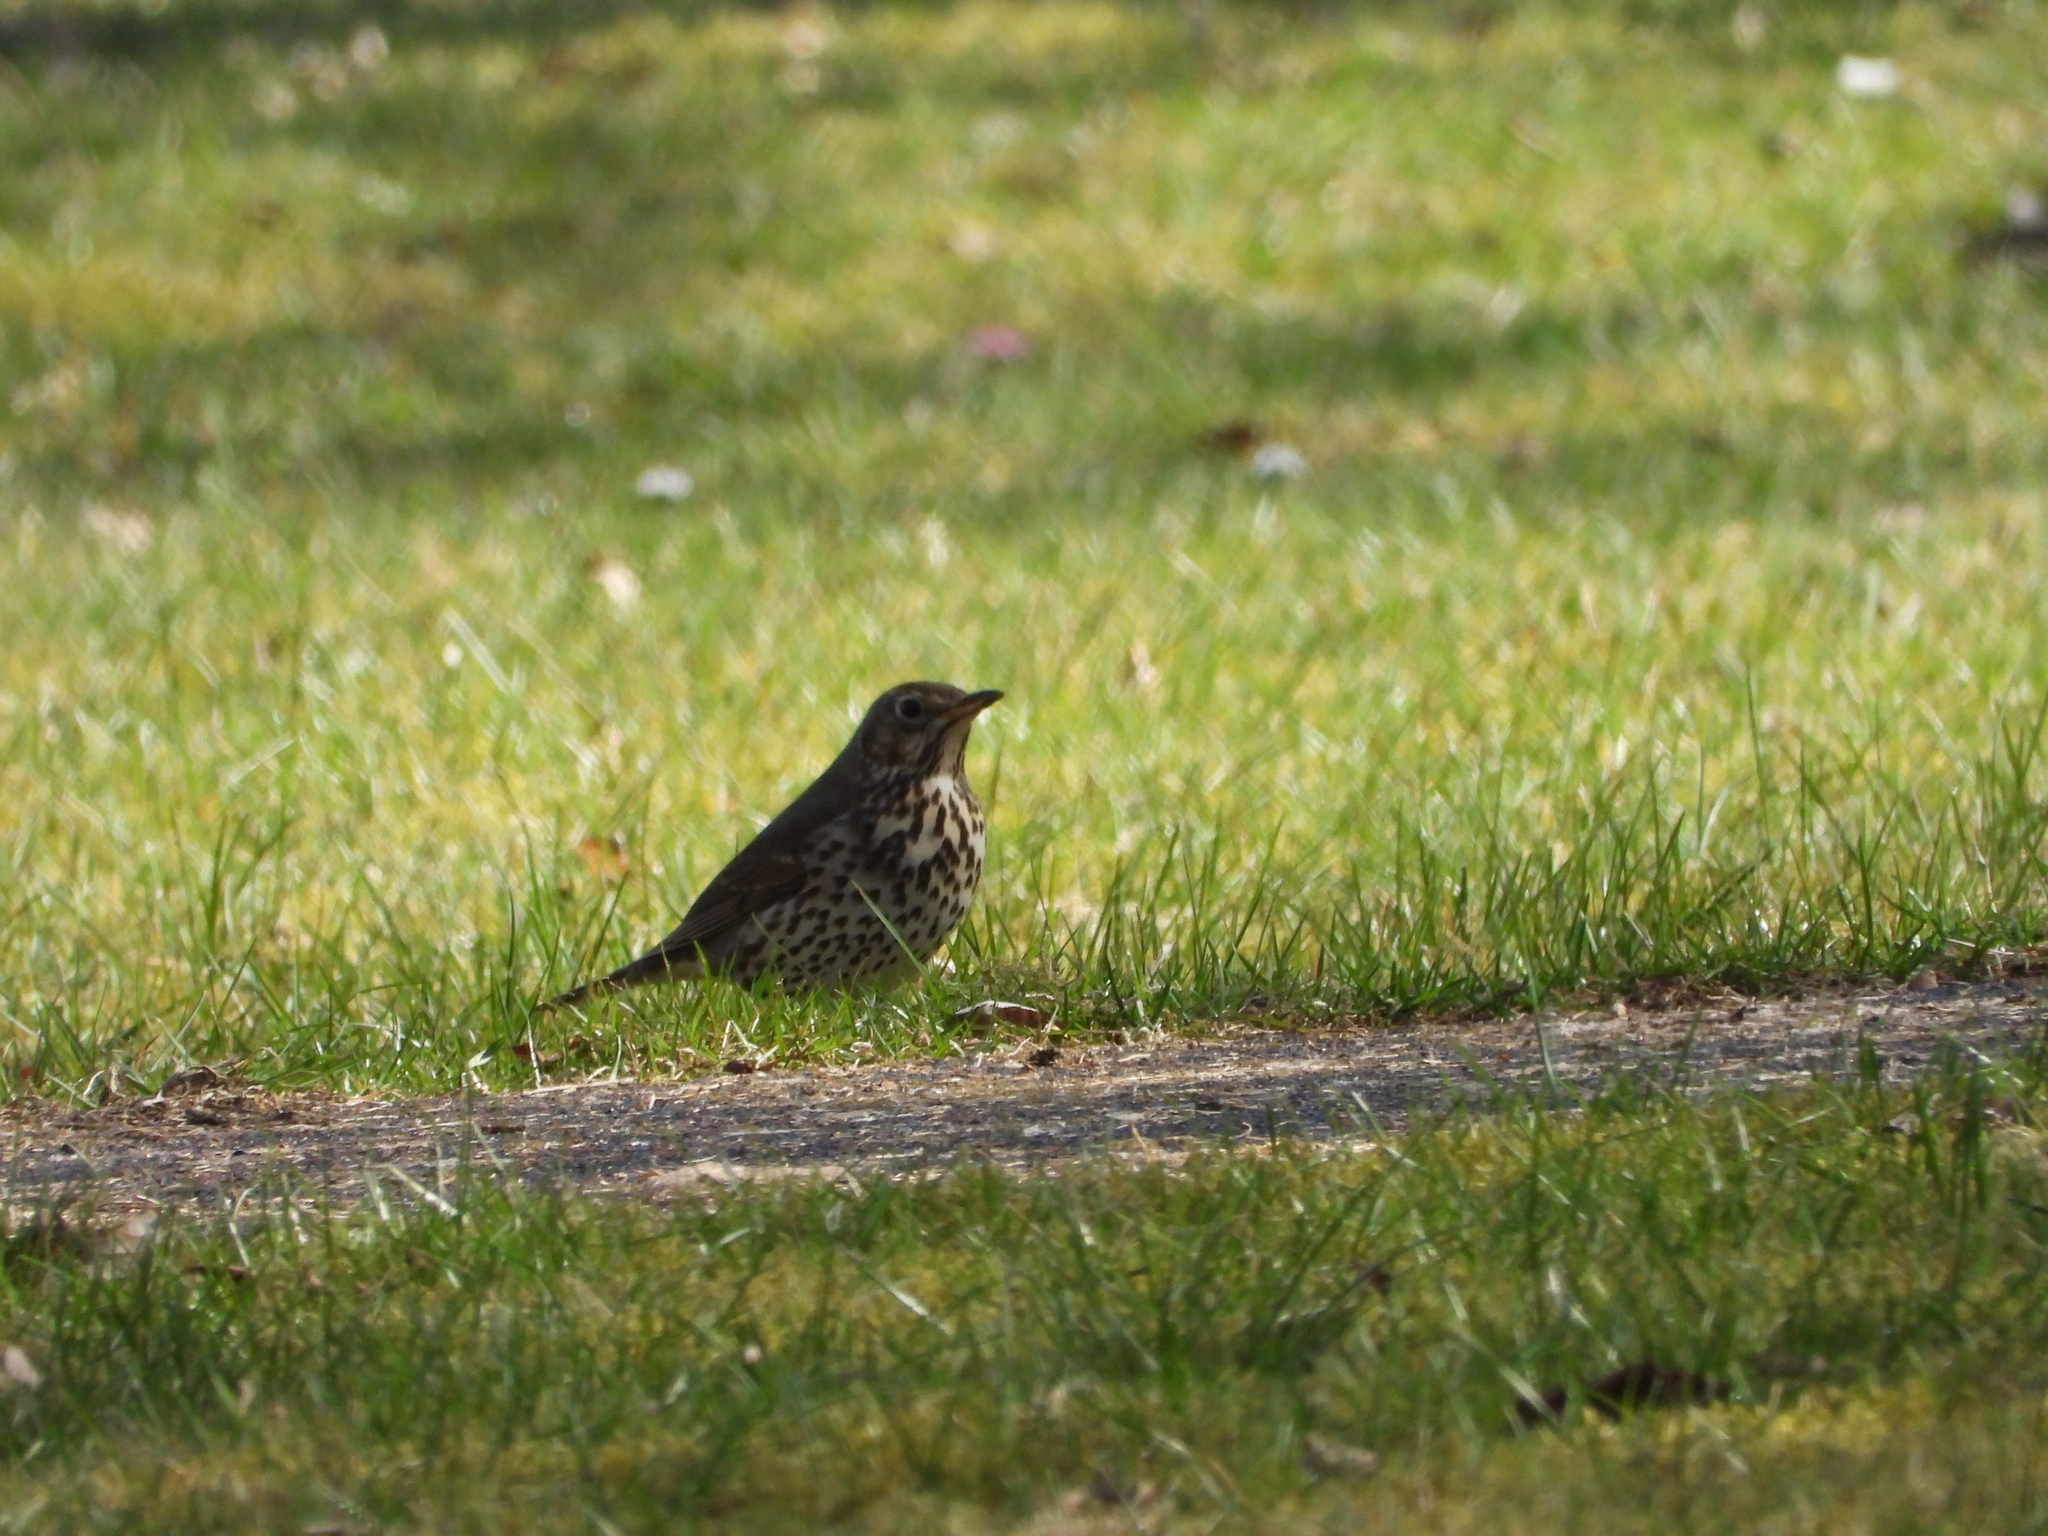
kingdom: Animalia
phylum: Chordata
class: Aves
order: Passeriformes
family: Turdidae
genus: Turdus
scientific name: Turdus philomelos
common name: Song thrush
